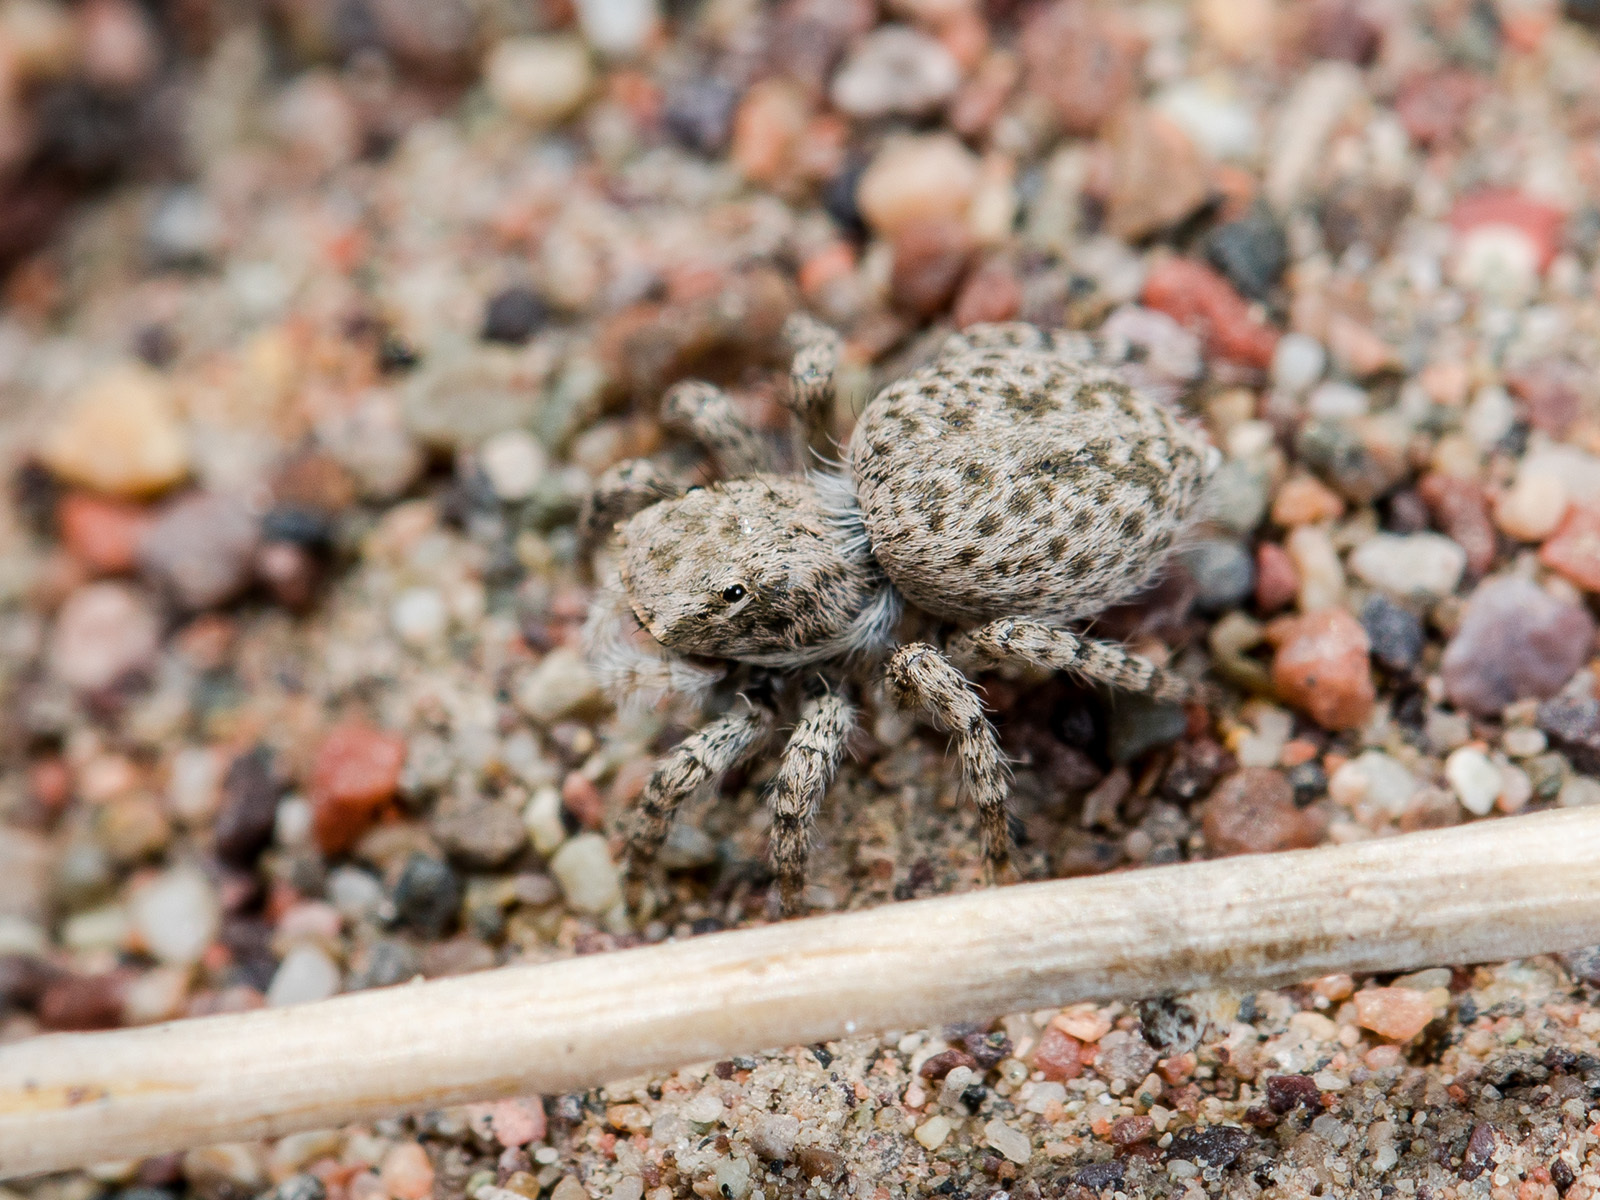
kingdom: Animalia
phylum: Arthropoda
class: Arachnida
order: Araneae
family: Salticidae
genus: Aelurillus
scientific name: Aelurillus andreevae
